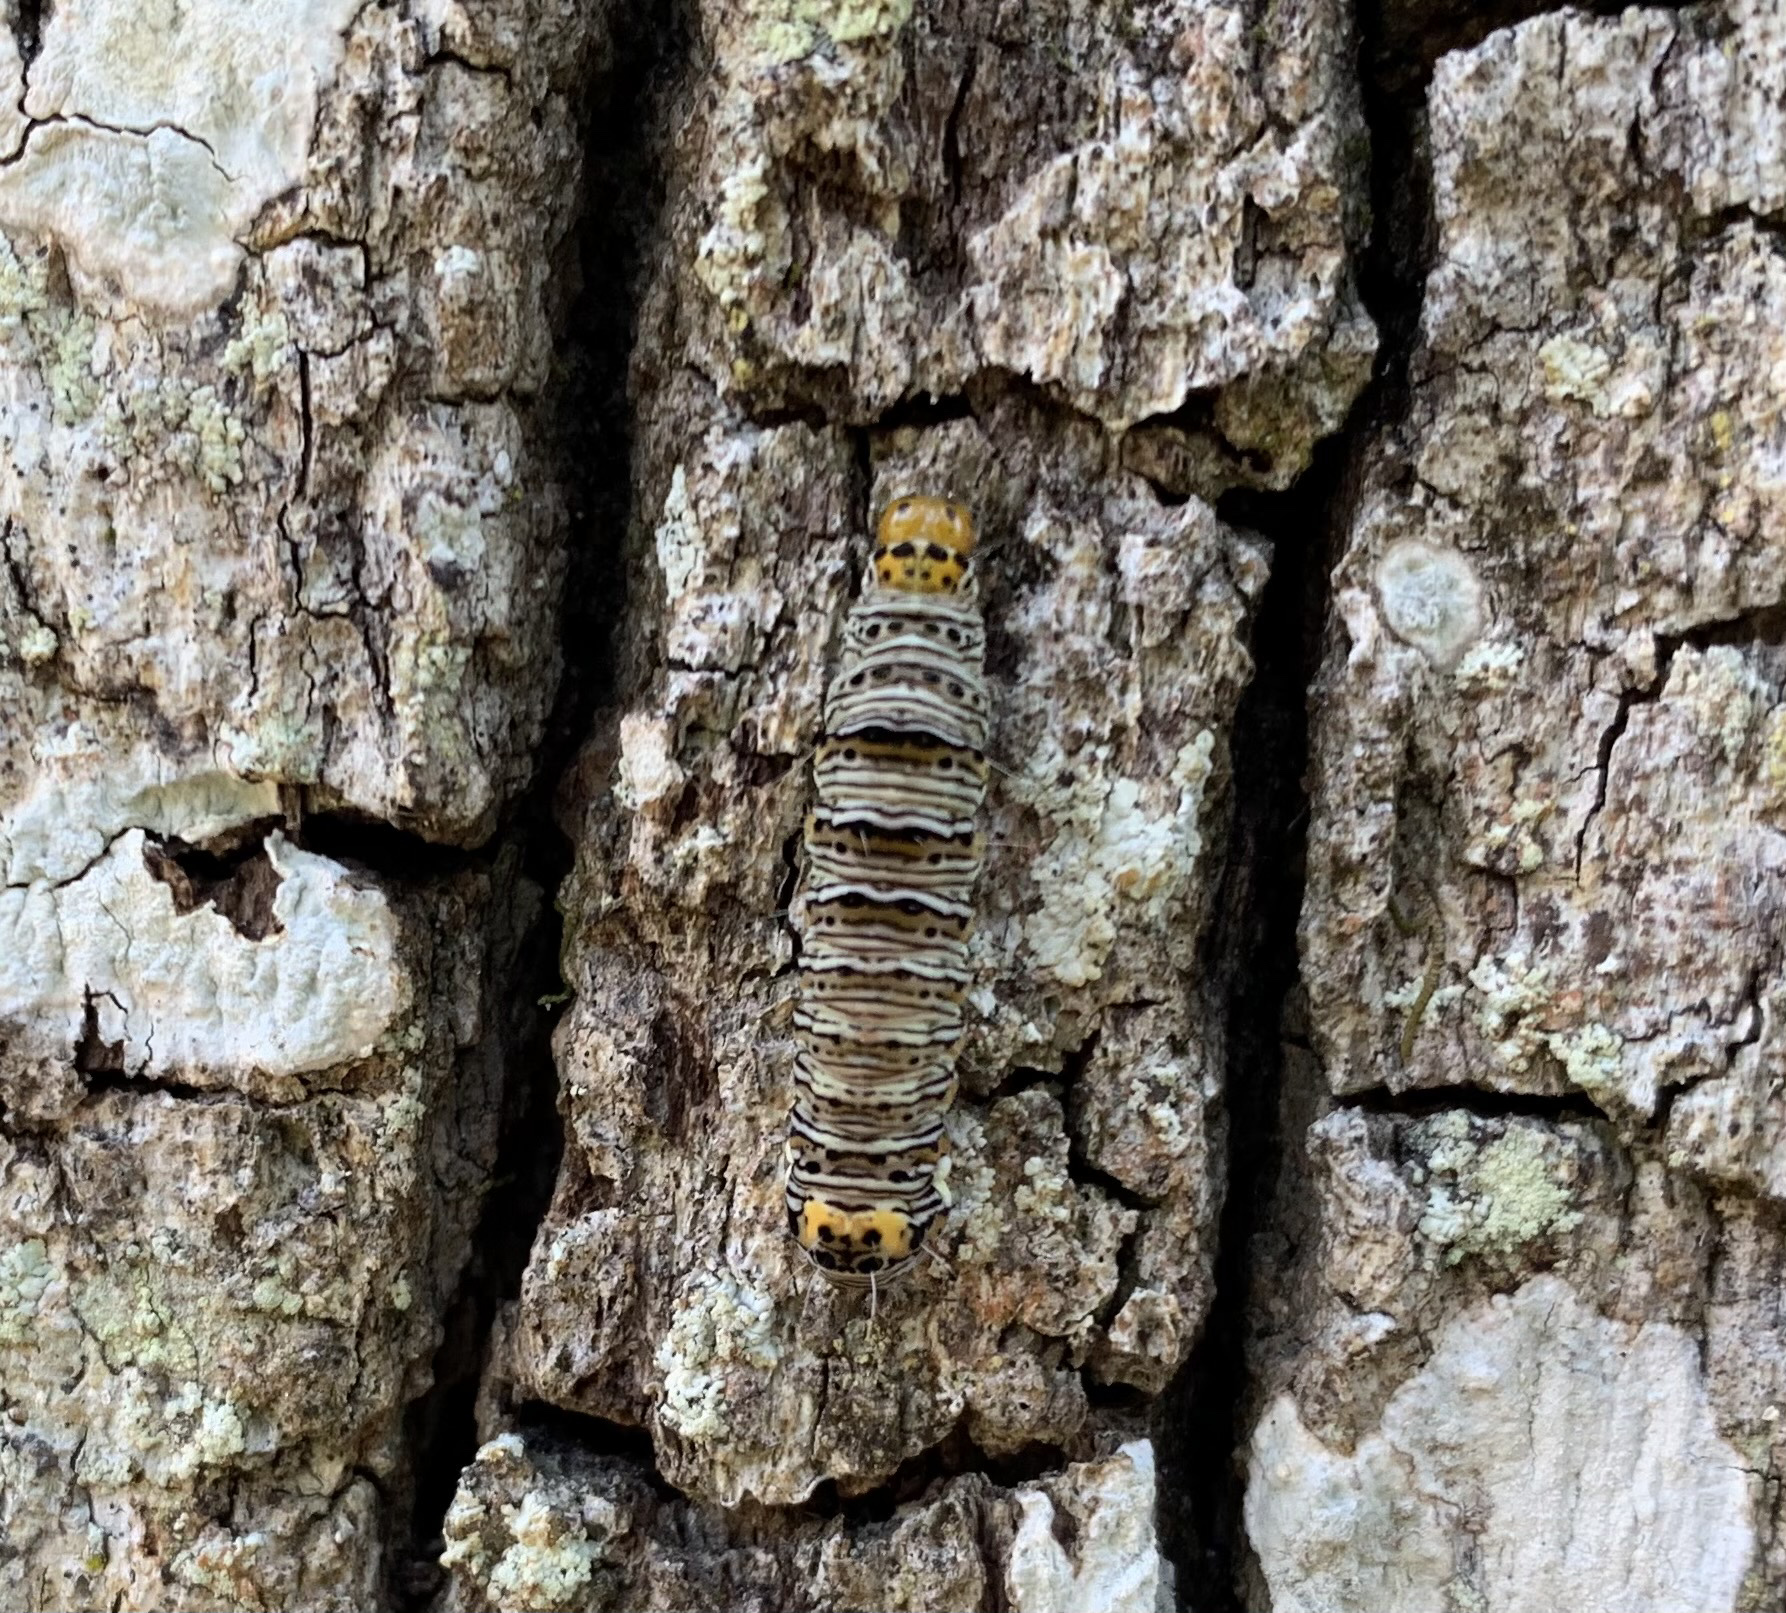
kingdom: Animalia
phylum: Arthropoda
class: Insecta
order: Lepidoptera
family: Noctuidae
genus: Alypia
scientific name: Alypia wittfeldii
